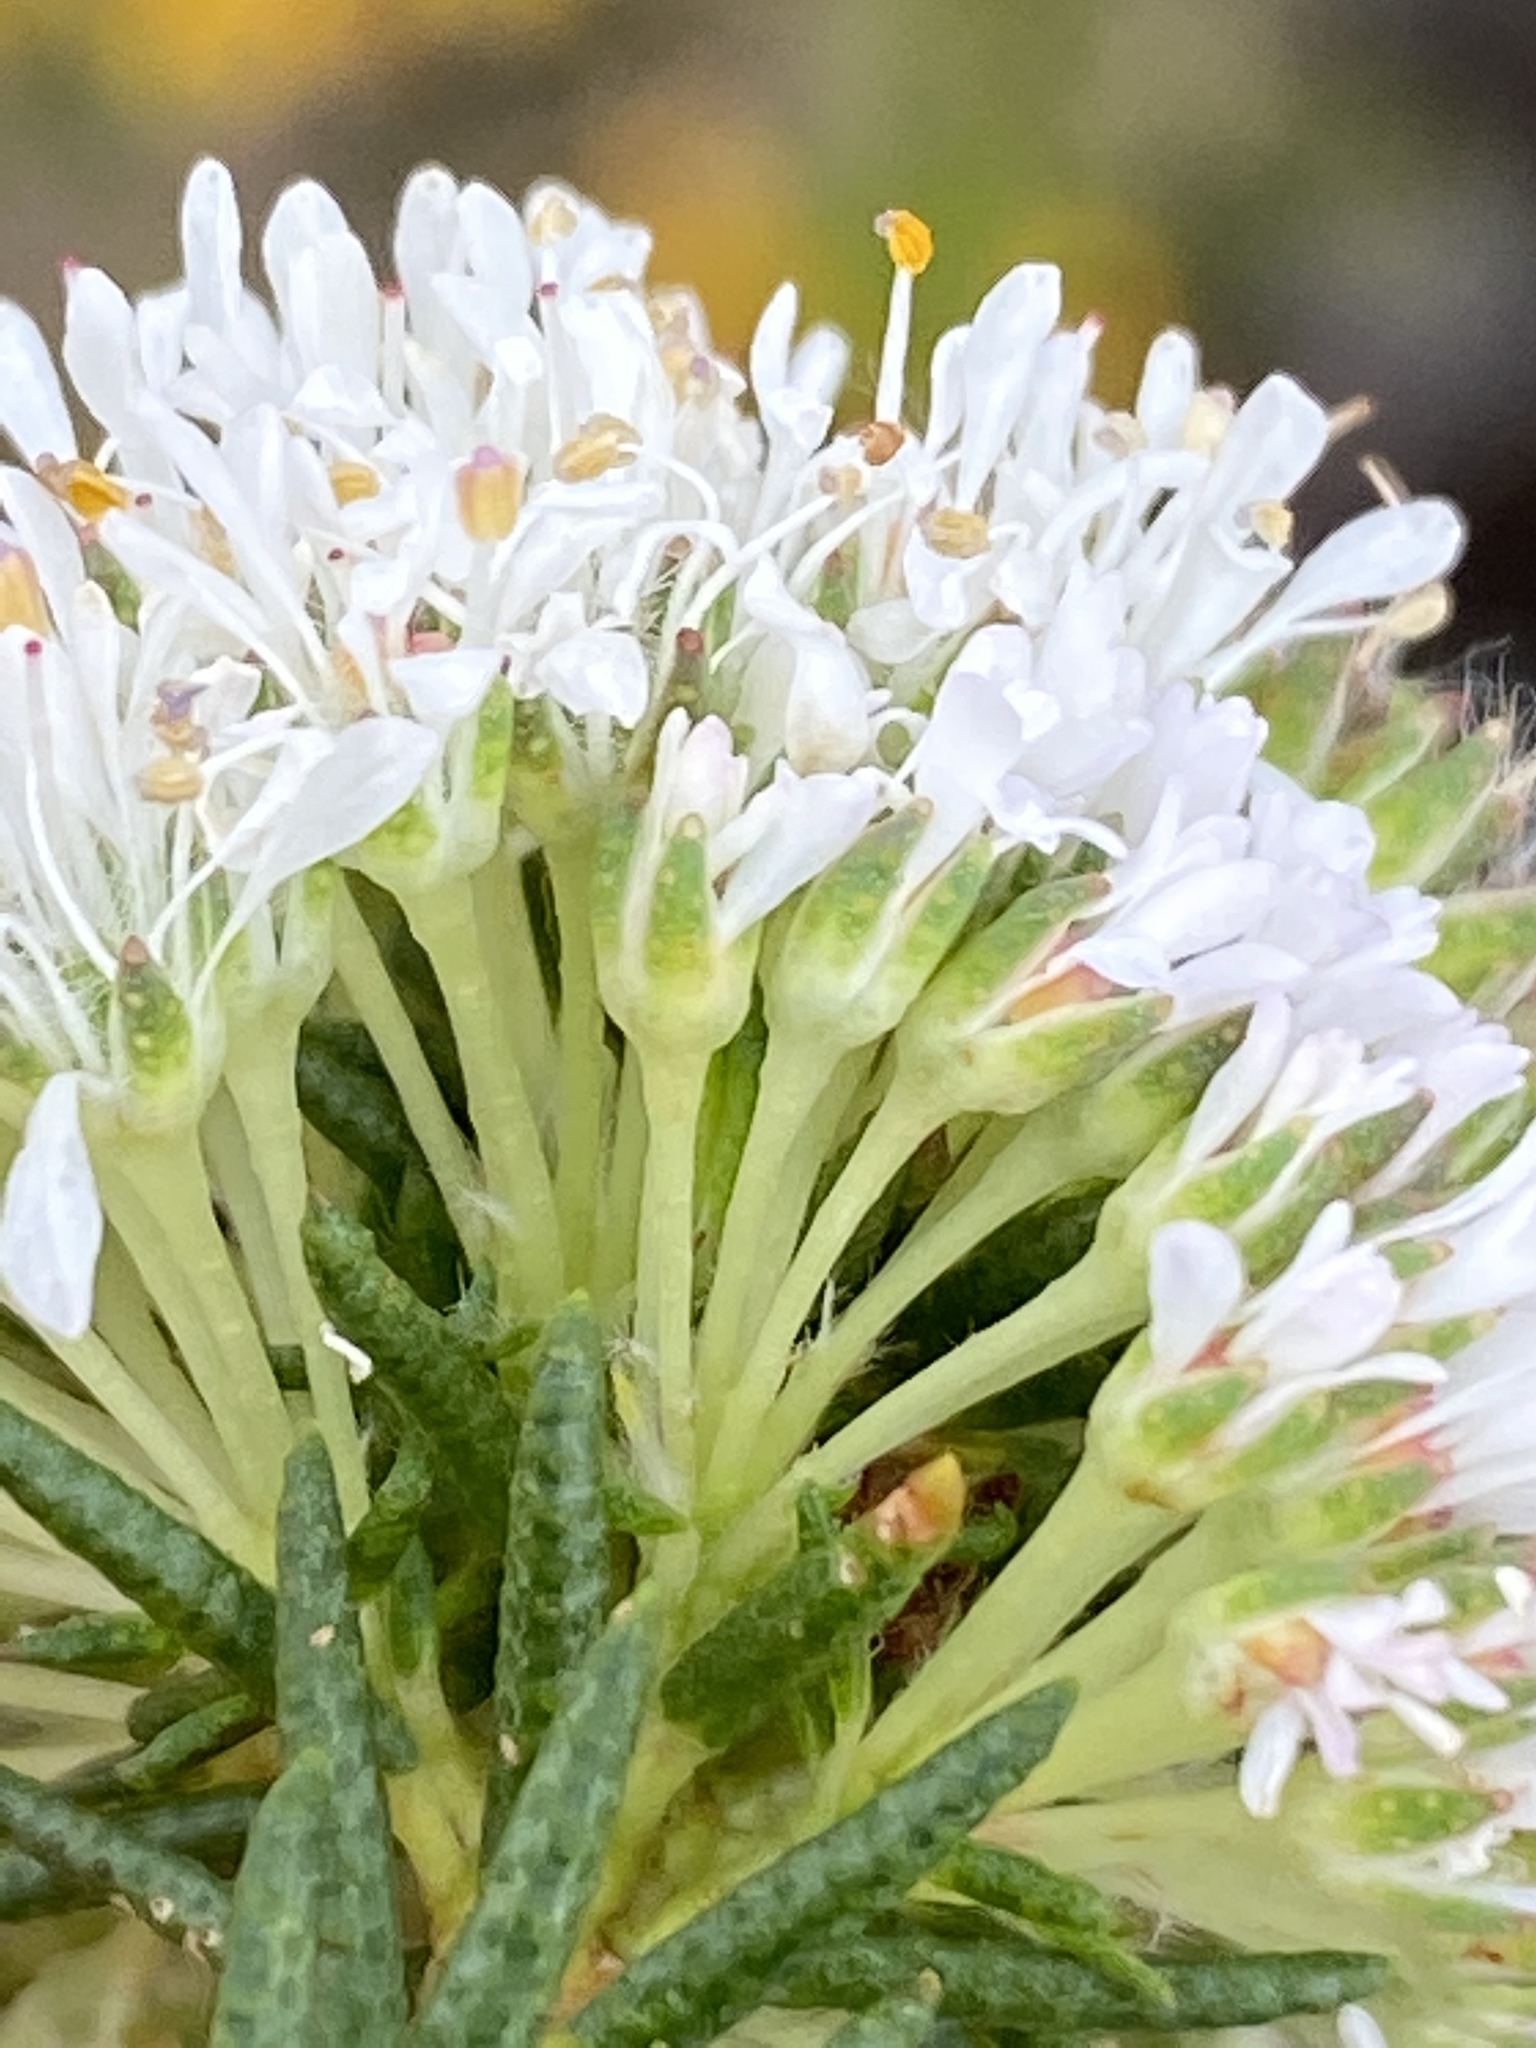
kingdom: Plantae
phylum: Tracheophyta
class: Magnoliopsida
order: Sapindales
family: Rutaceae
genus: Agathosma
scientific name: Agathosma virgata
